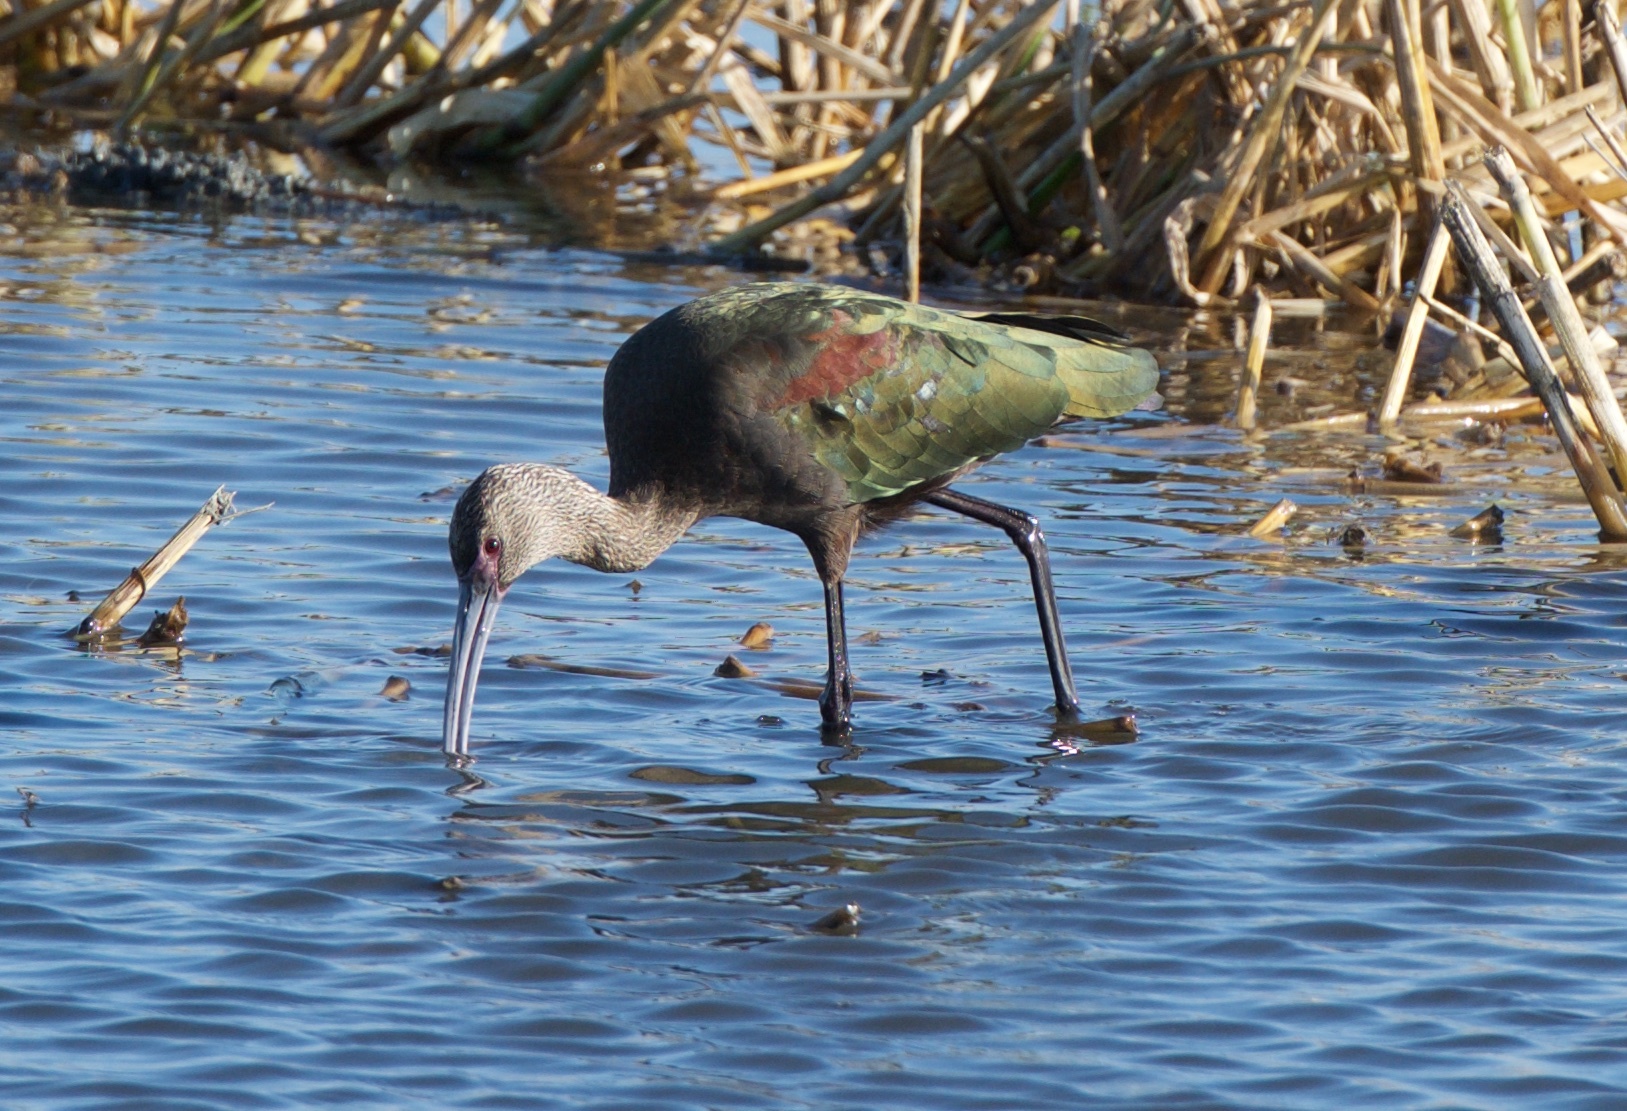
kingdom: Animalia
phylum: Chordata
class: Aves
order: Pelecaniformes
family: Threskiornithidae
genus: Plegadis
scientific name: Plegadis chihi
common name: White-faced ibis
